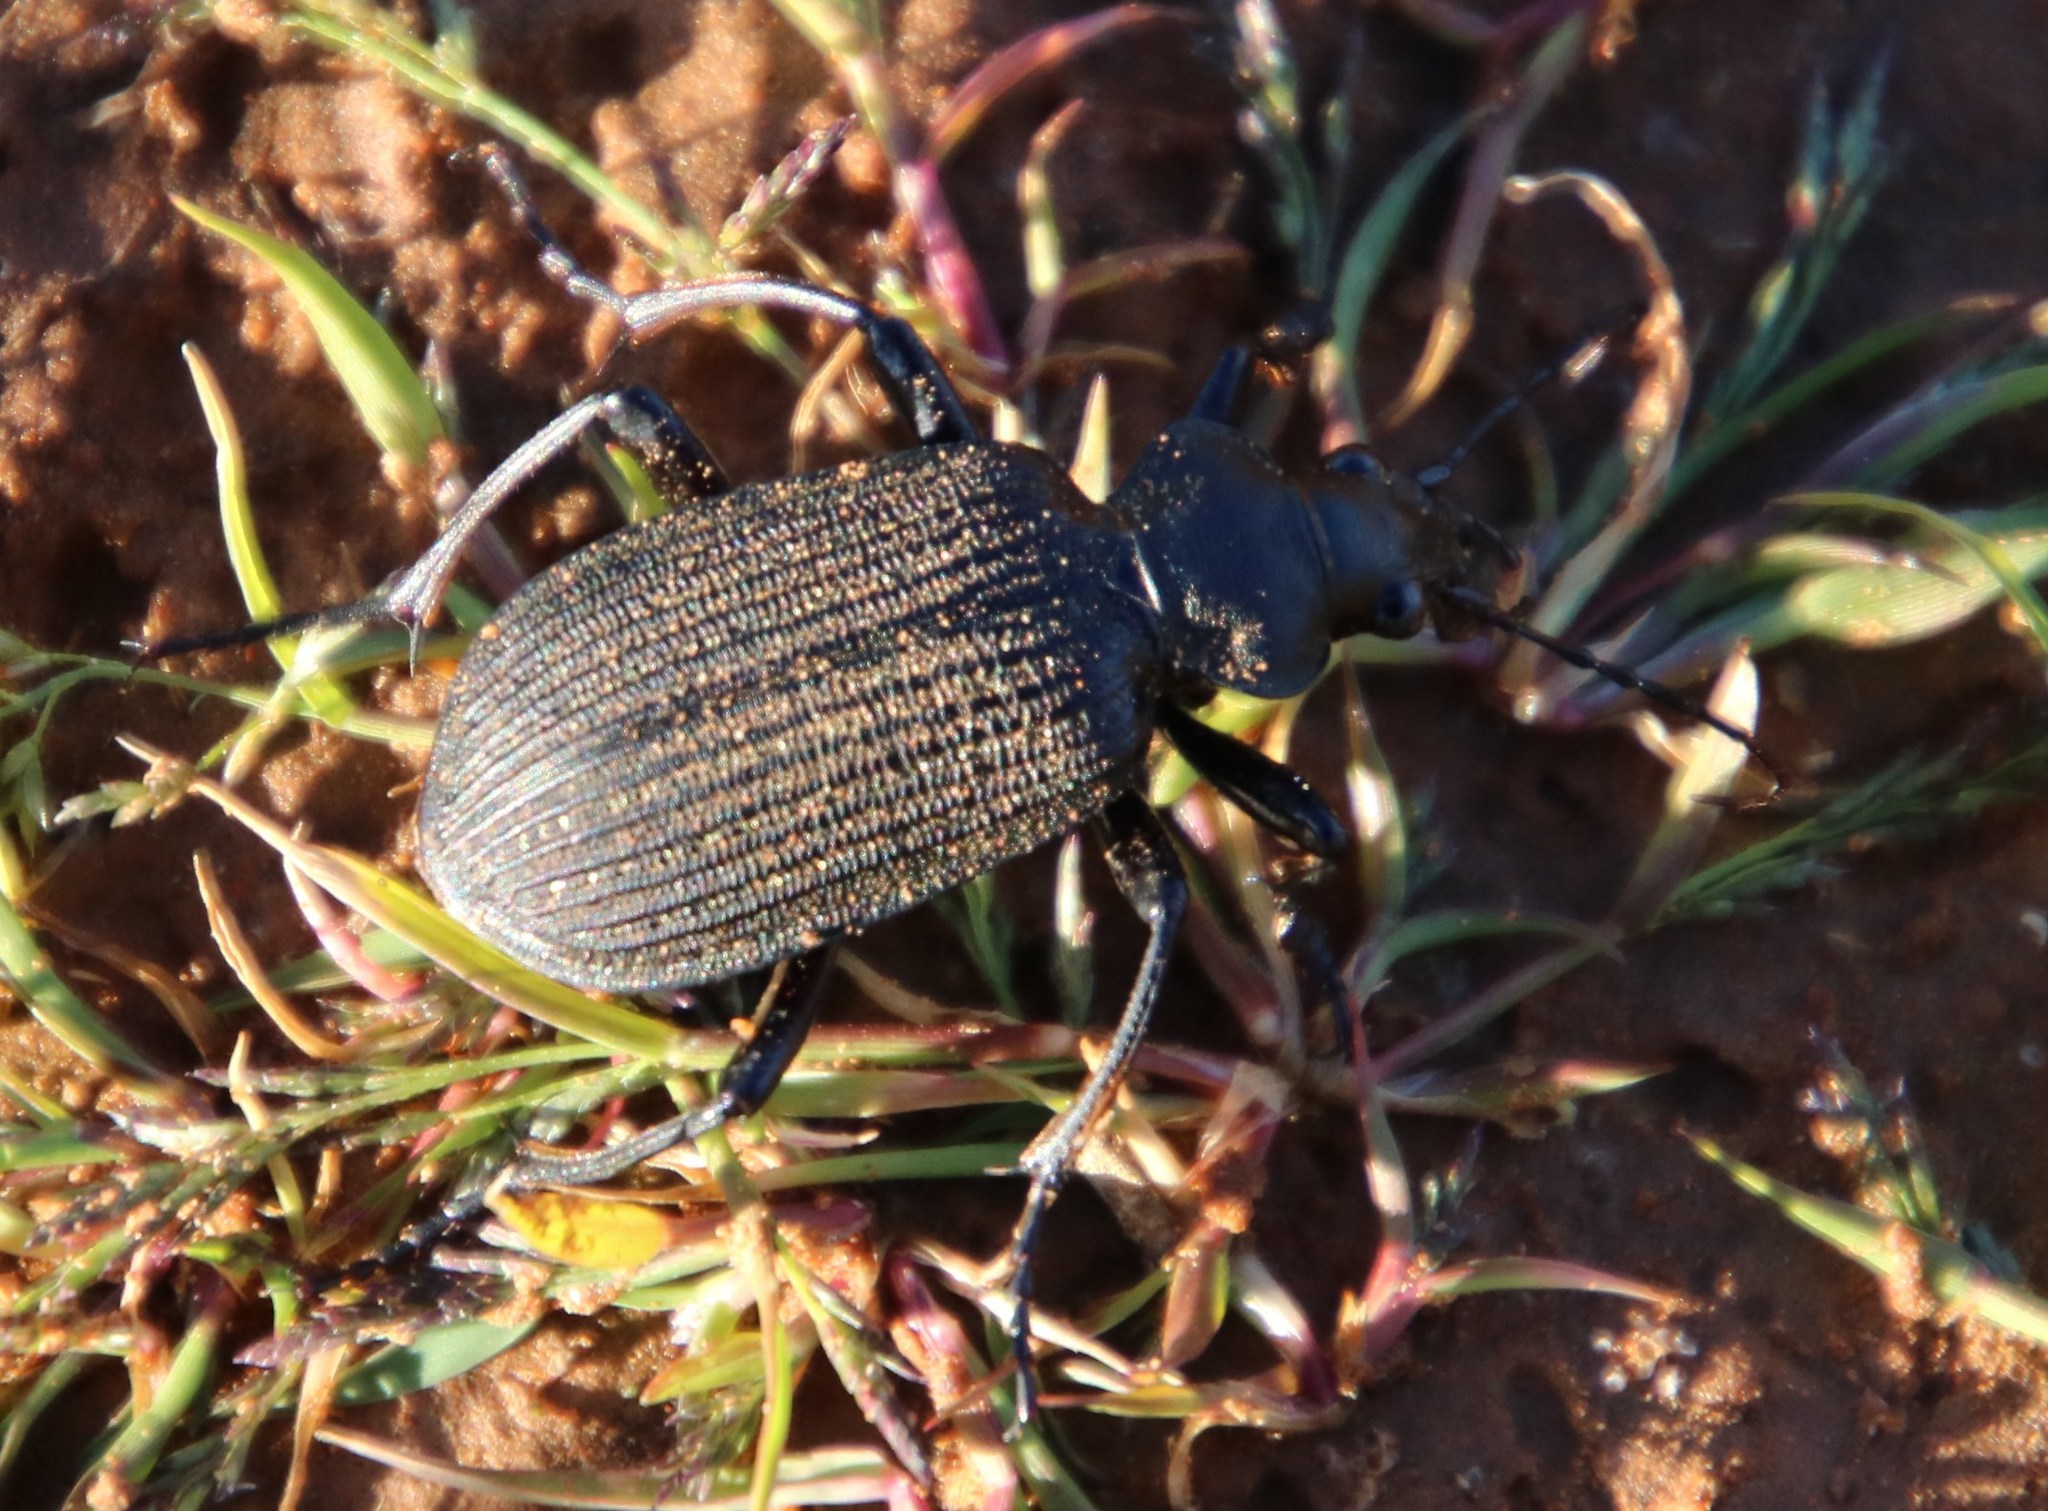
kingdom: Animalia
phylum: Arthropoda
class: Insecta
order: Coleoptera
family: Carabidae
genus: Calosoma
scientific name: Calosoma planicolle
